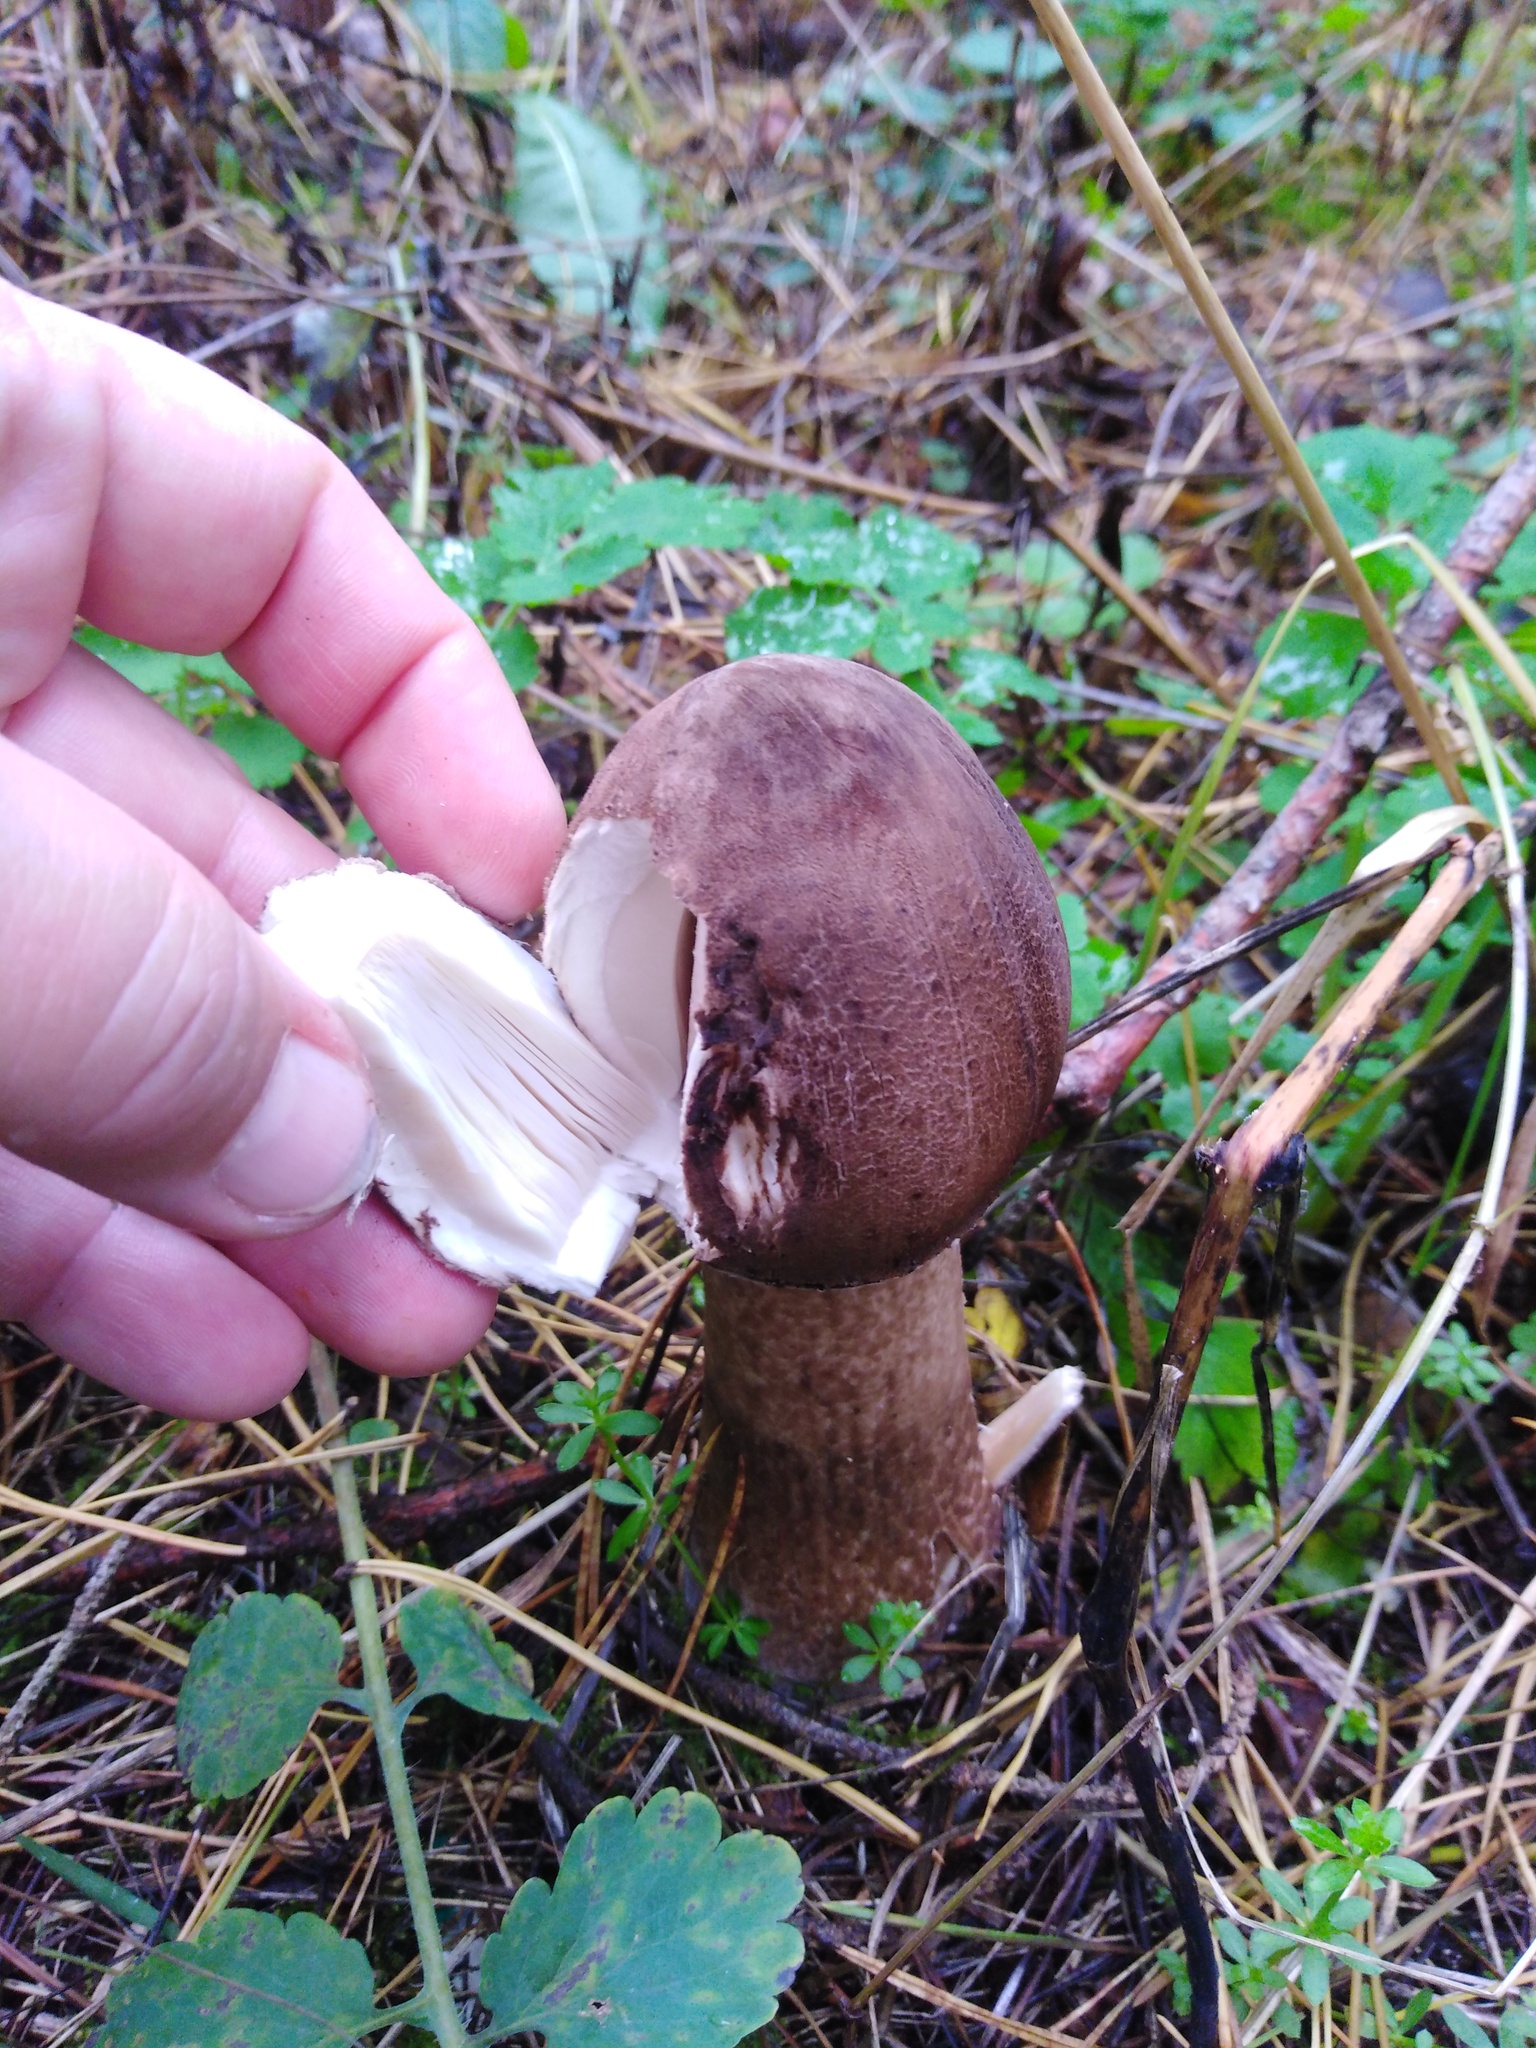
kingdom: Fungi
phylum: Basidiomycota
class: Agaricomycetes
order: Agaricales
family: Agaricaceae
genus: Macrolepiota
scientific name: Macrolepiota procera
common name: Parasol
